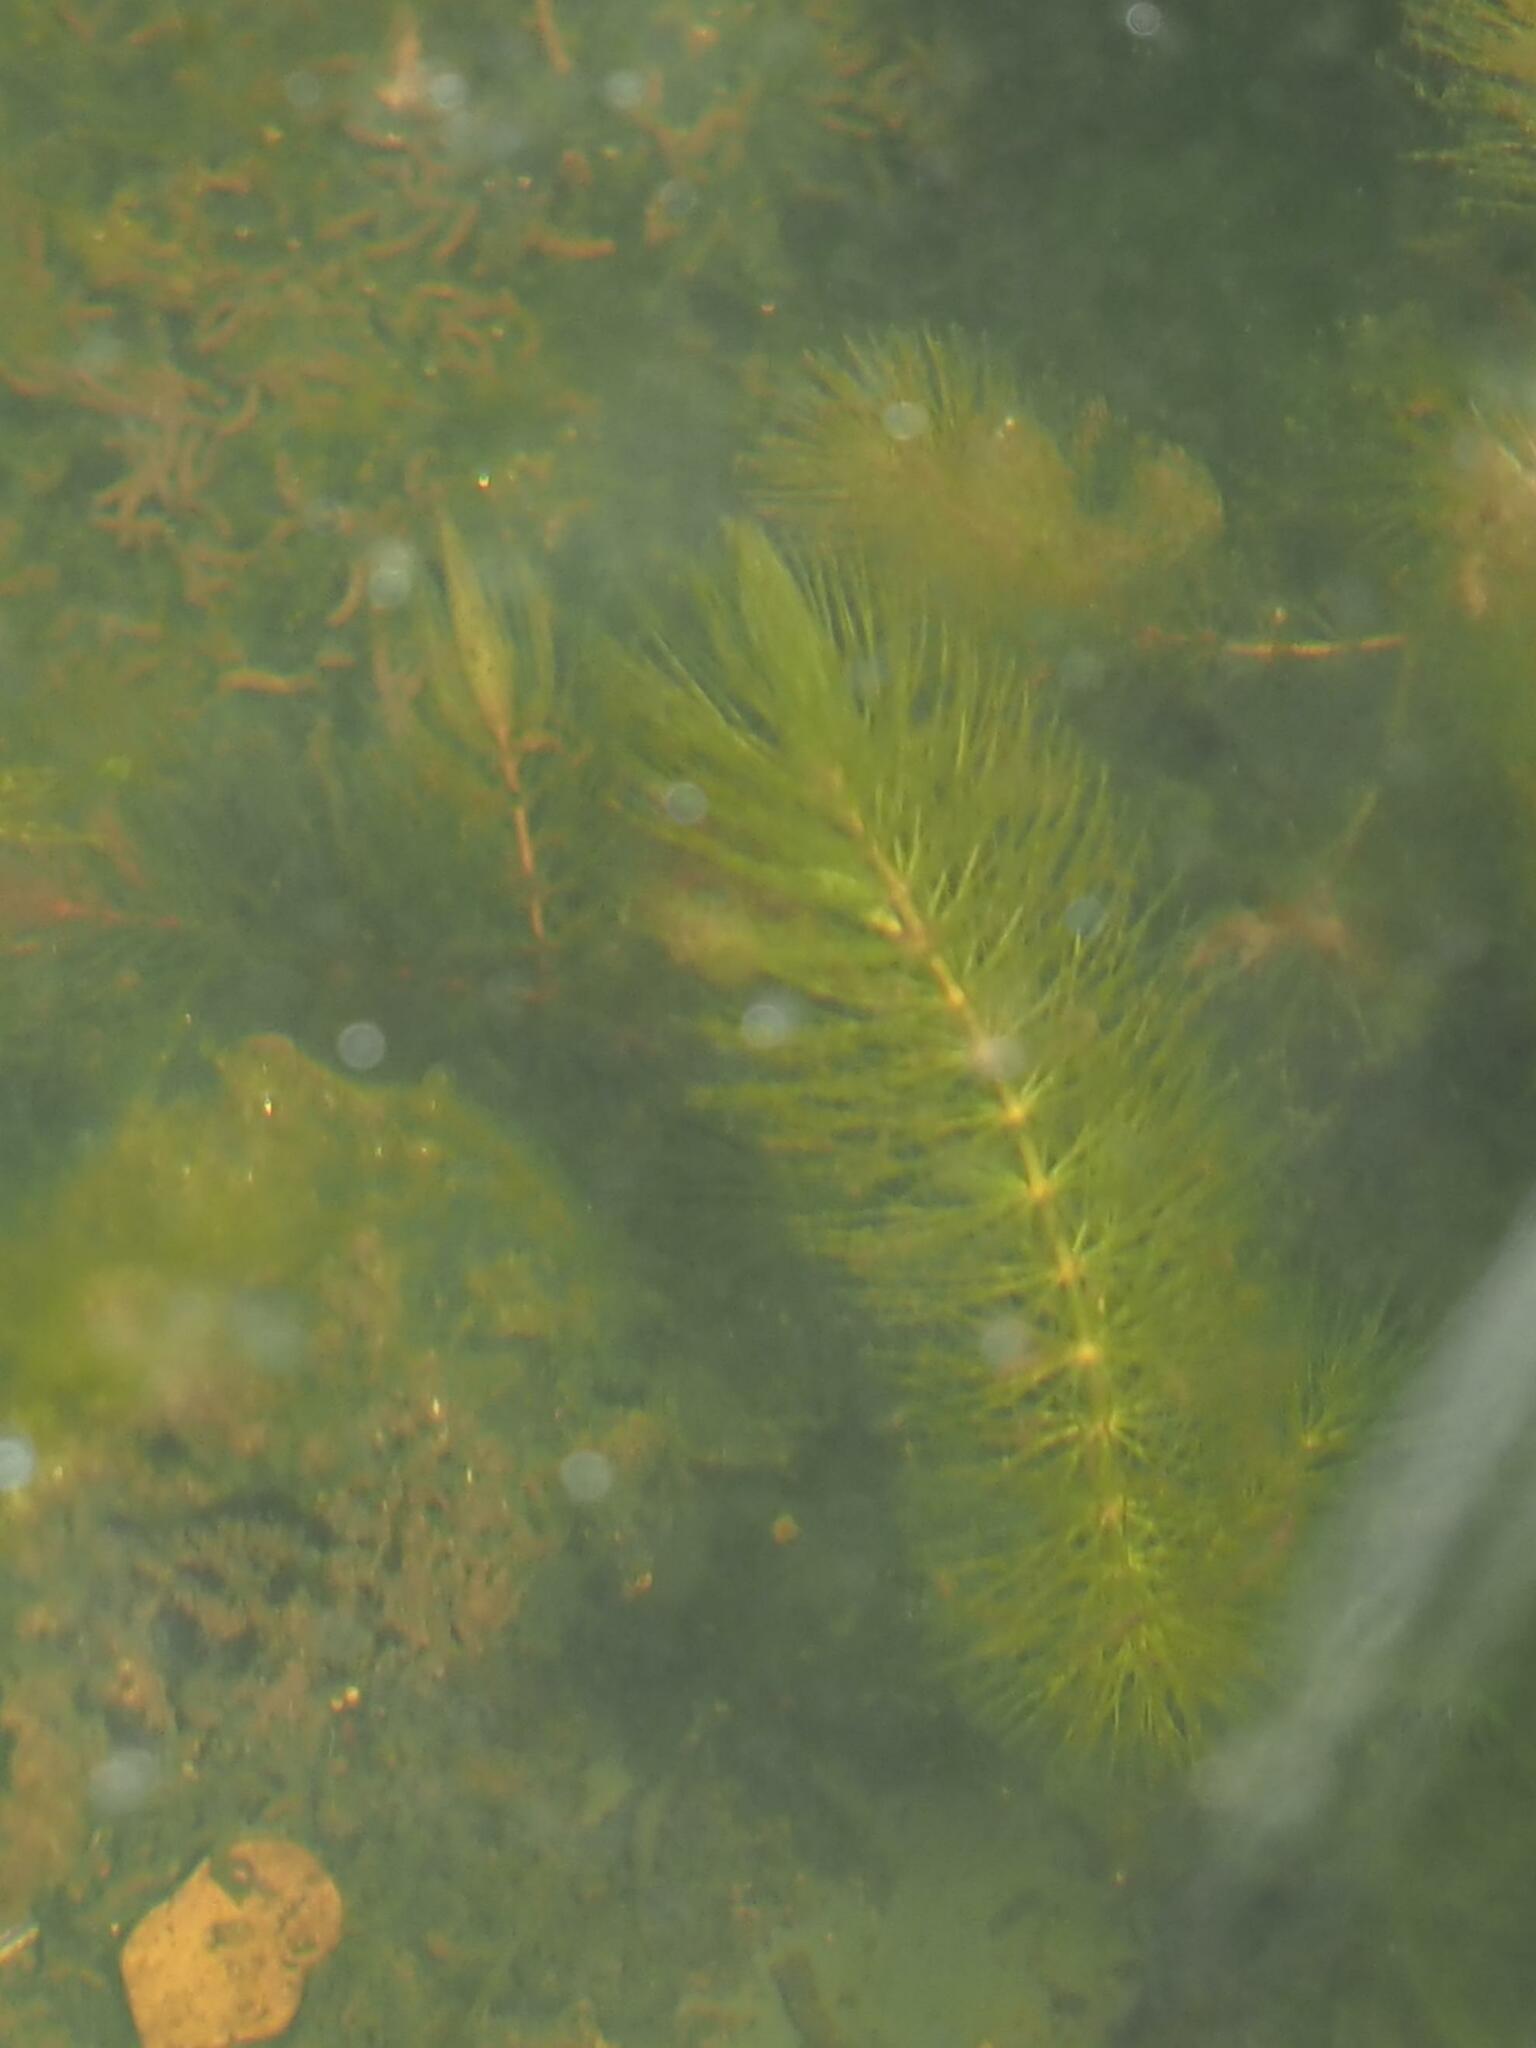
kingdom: Plantae
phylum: Tracheophyta
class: Magnoliopsida
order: Ceratophyllales
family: Ceratophyllaceae
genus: Ceratophyllum
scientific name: Ceratophyllum demersum
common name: Rigid hornwort
